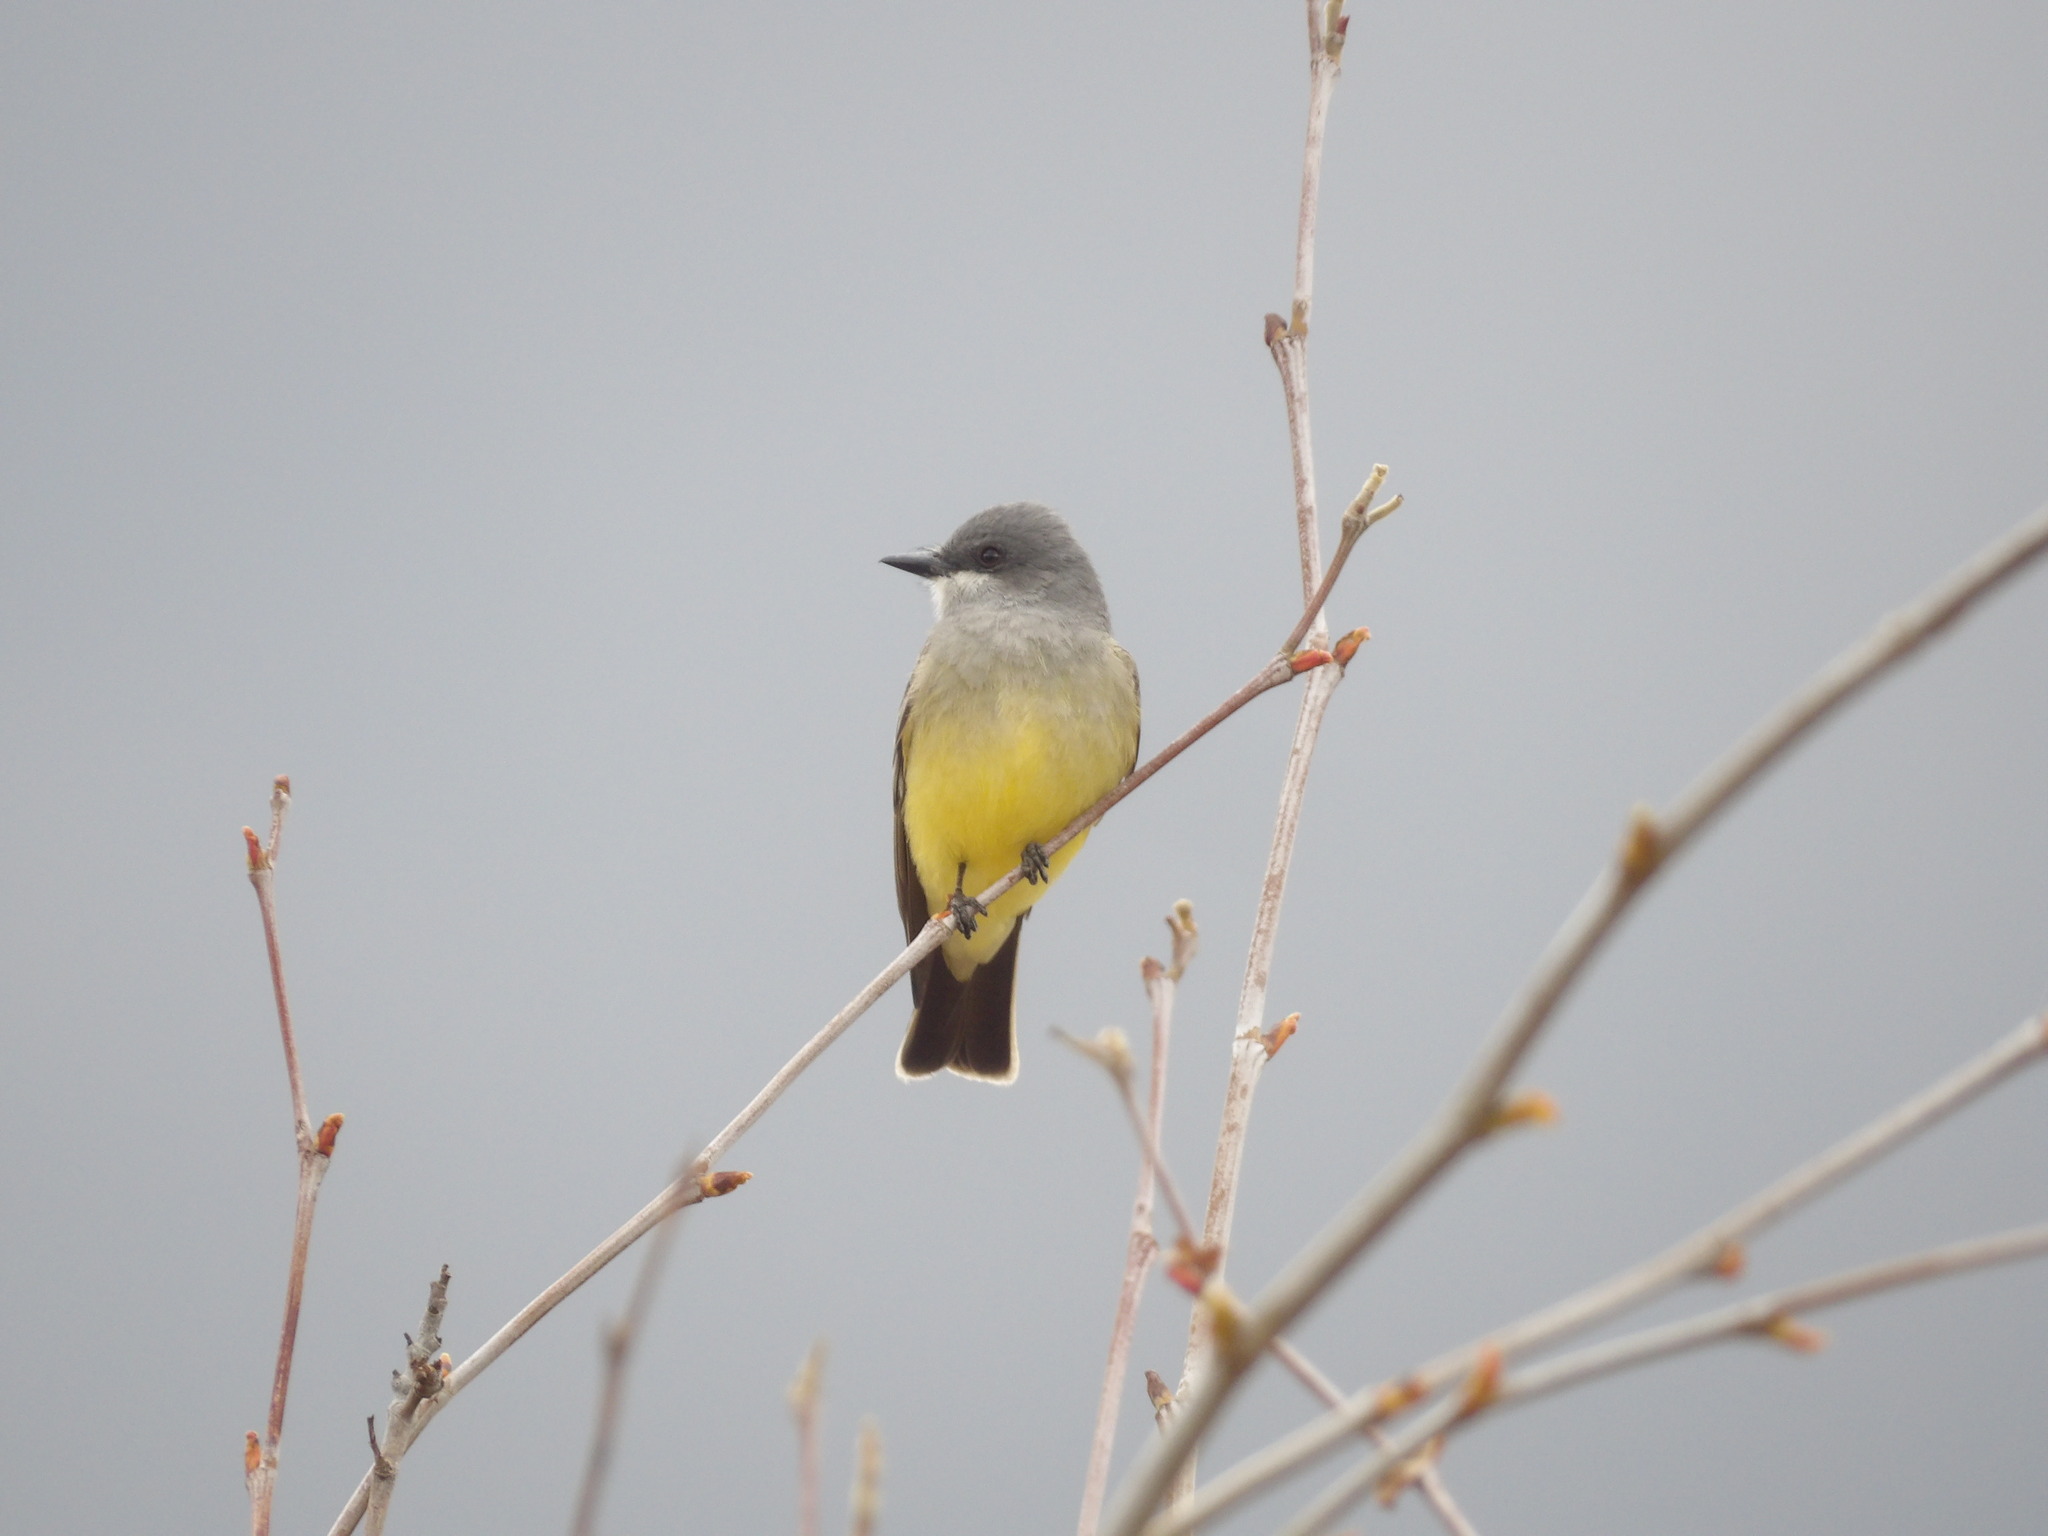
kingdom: Animalia
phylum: Chordata
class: Aves
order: Passeriformes
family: Tyrannidae
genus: Tyrannus
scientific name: Tyrannus vociferans
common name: Cassin's kingbird
